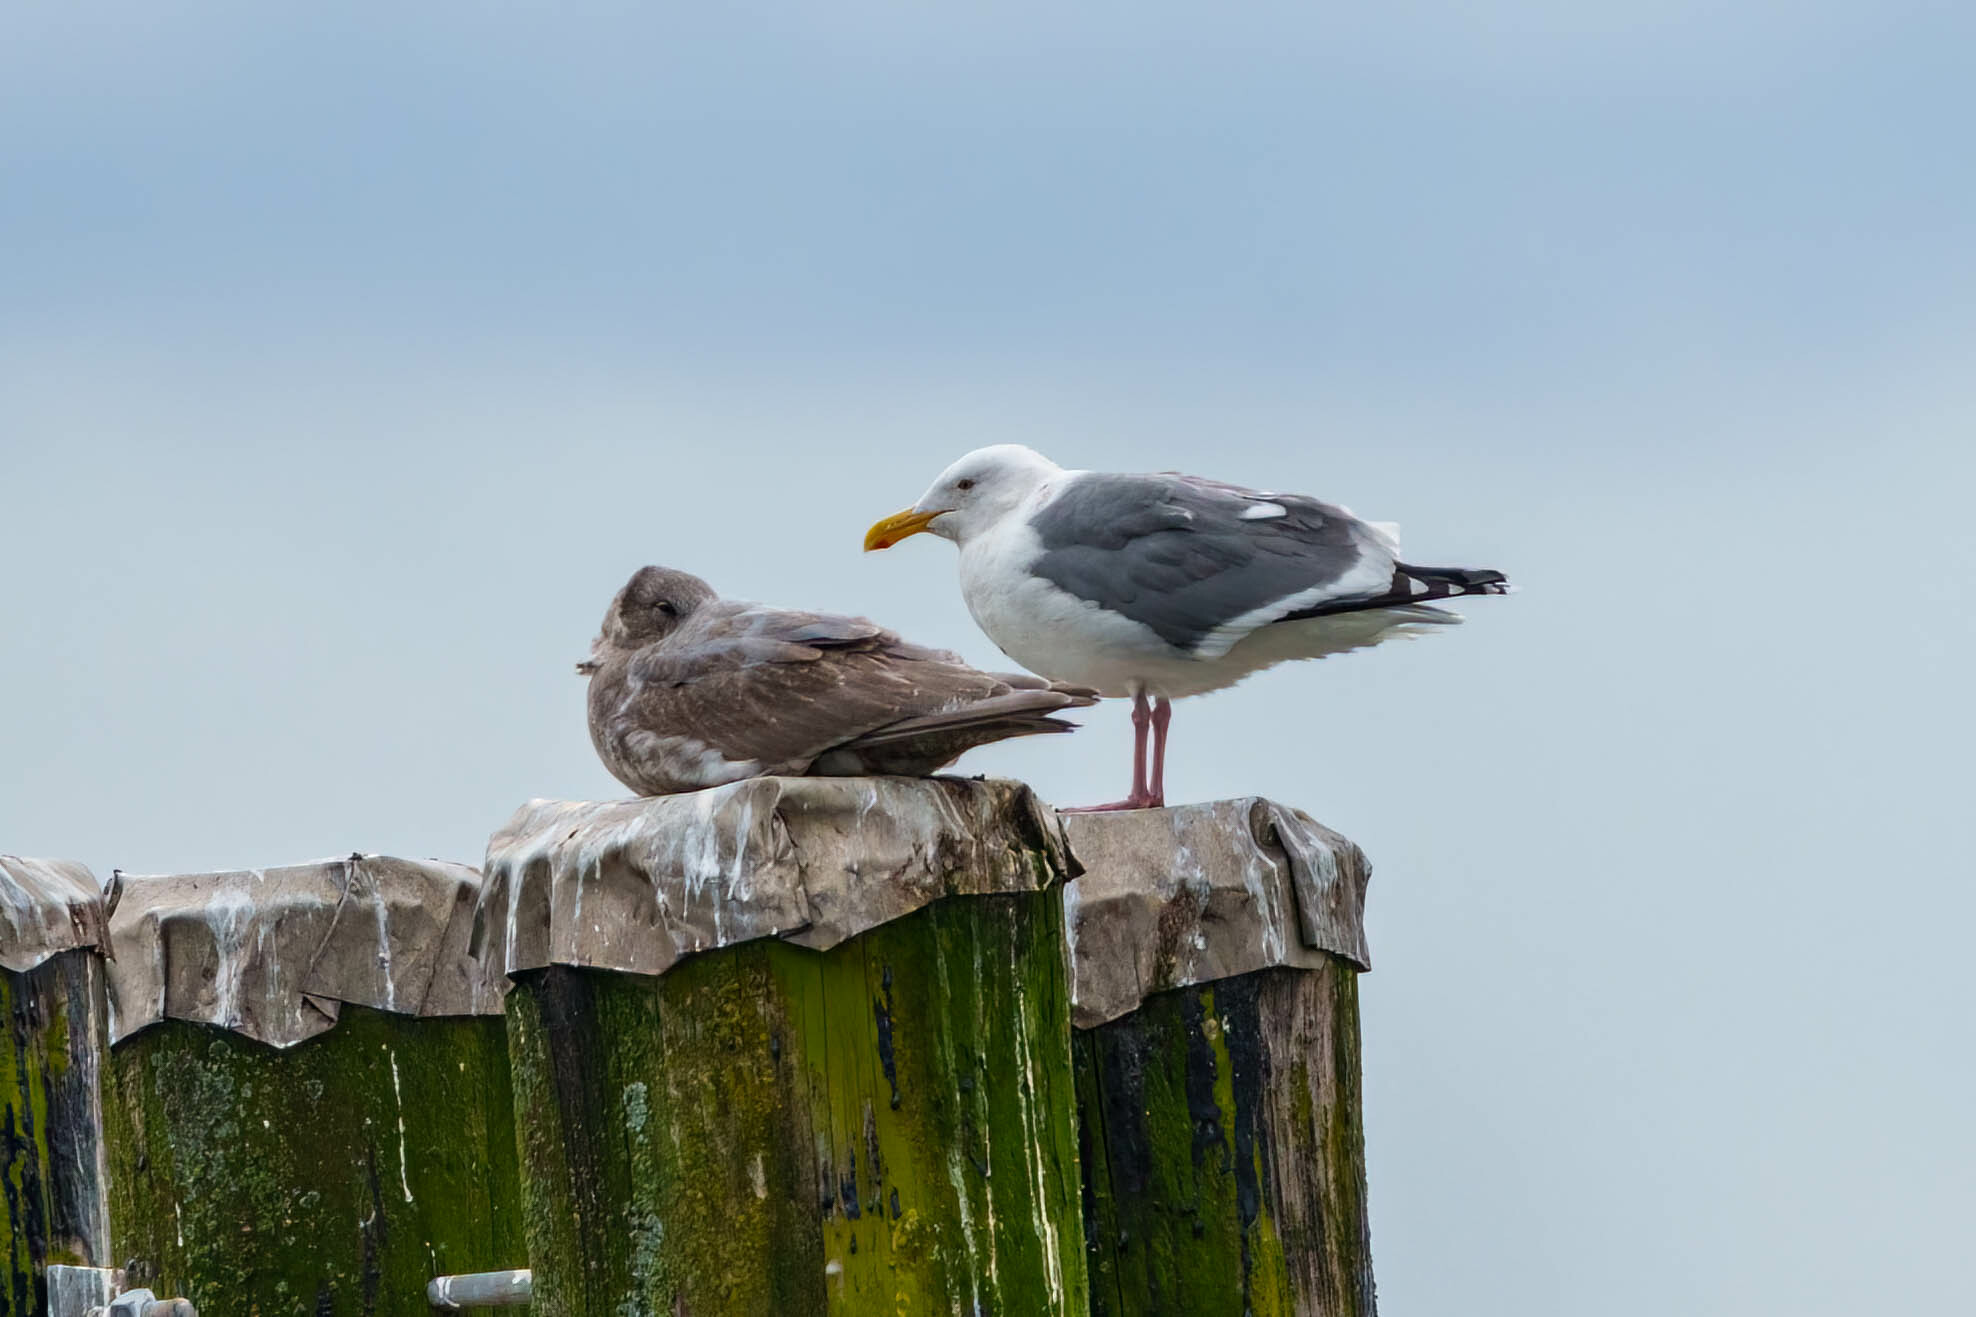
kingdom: Animalia
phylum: Chordata
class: Aves
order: Charadriiformes
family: Laridae
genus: Larus
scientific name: Larus occidentalis
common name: Western gull
